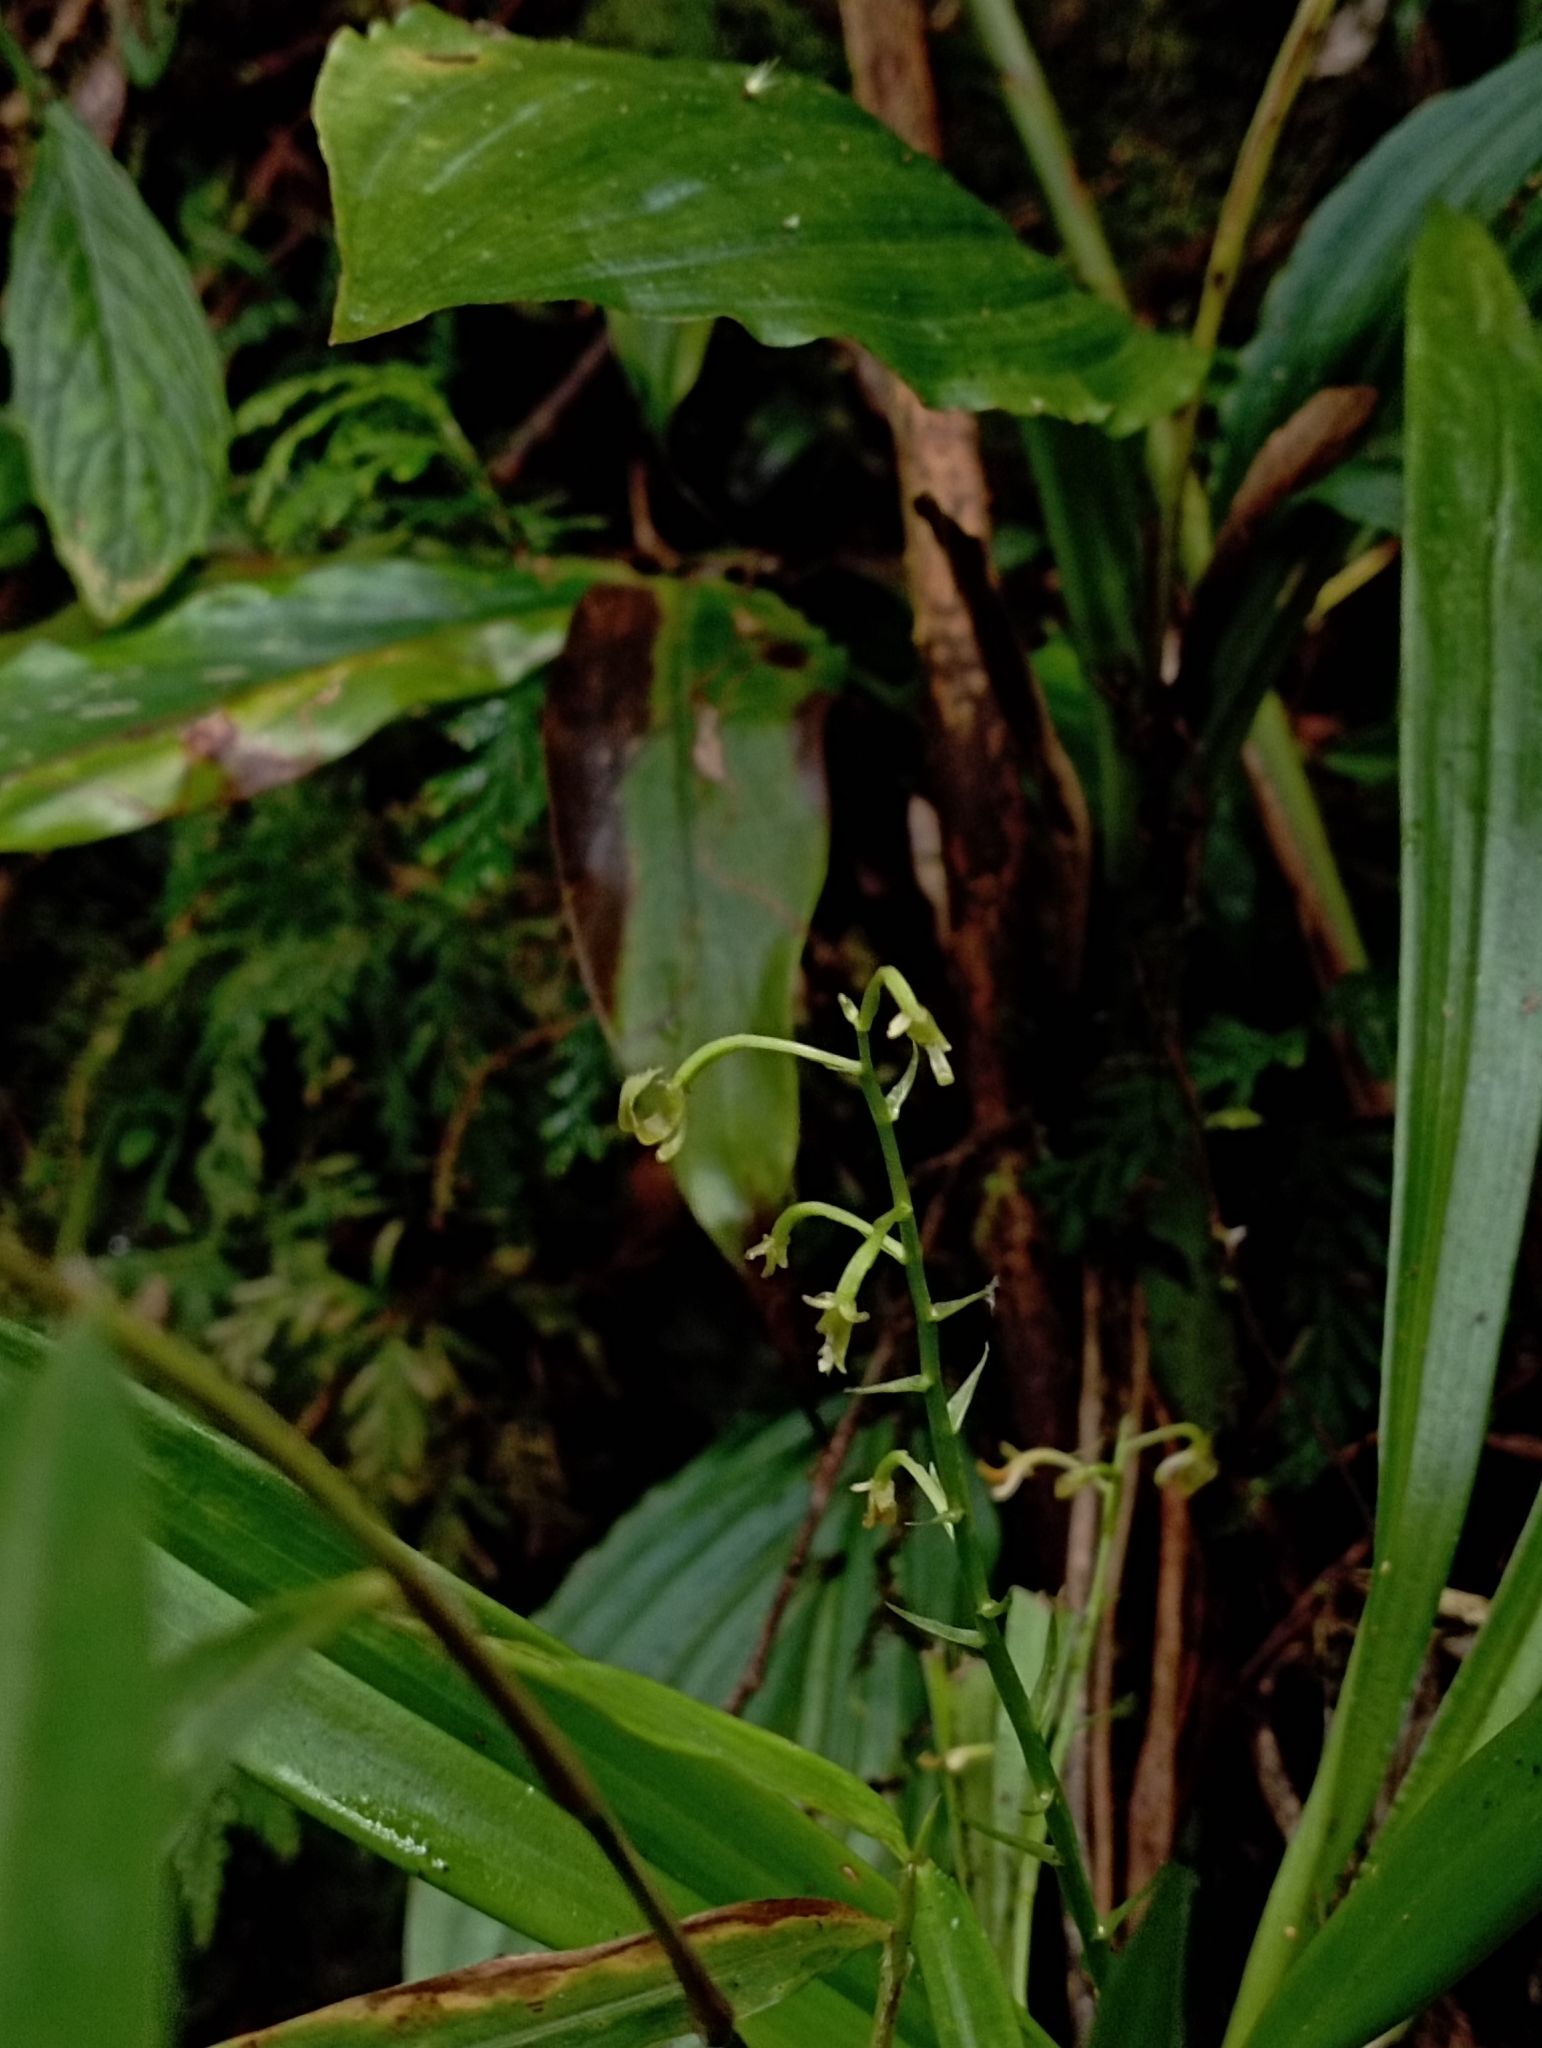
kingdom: Plantae
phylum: Tracheophyta
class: Liliopsida
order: Asparagales
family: Orchidaceae
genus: Liparis
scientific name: Liparis nakaharae
